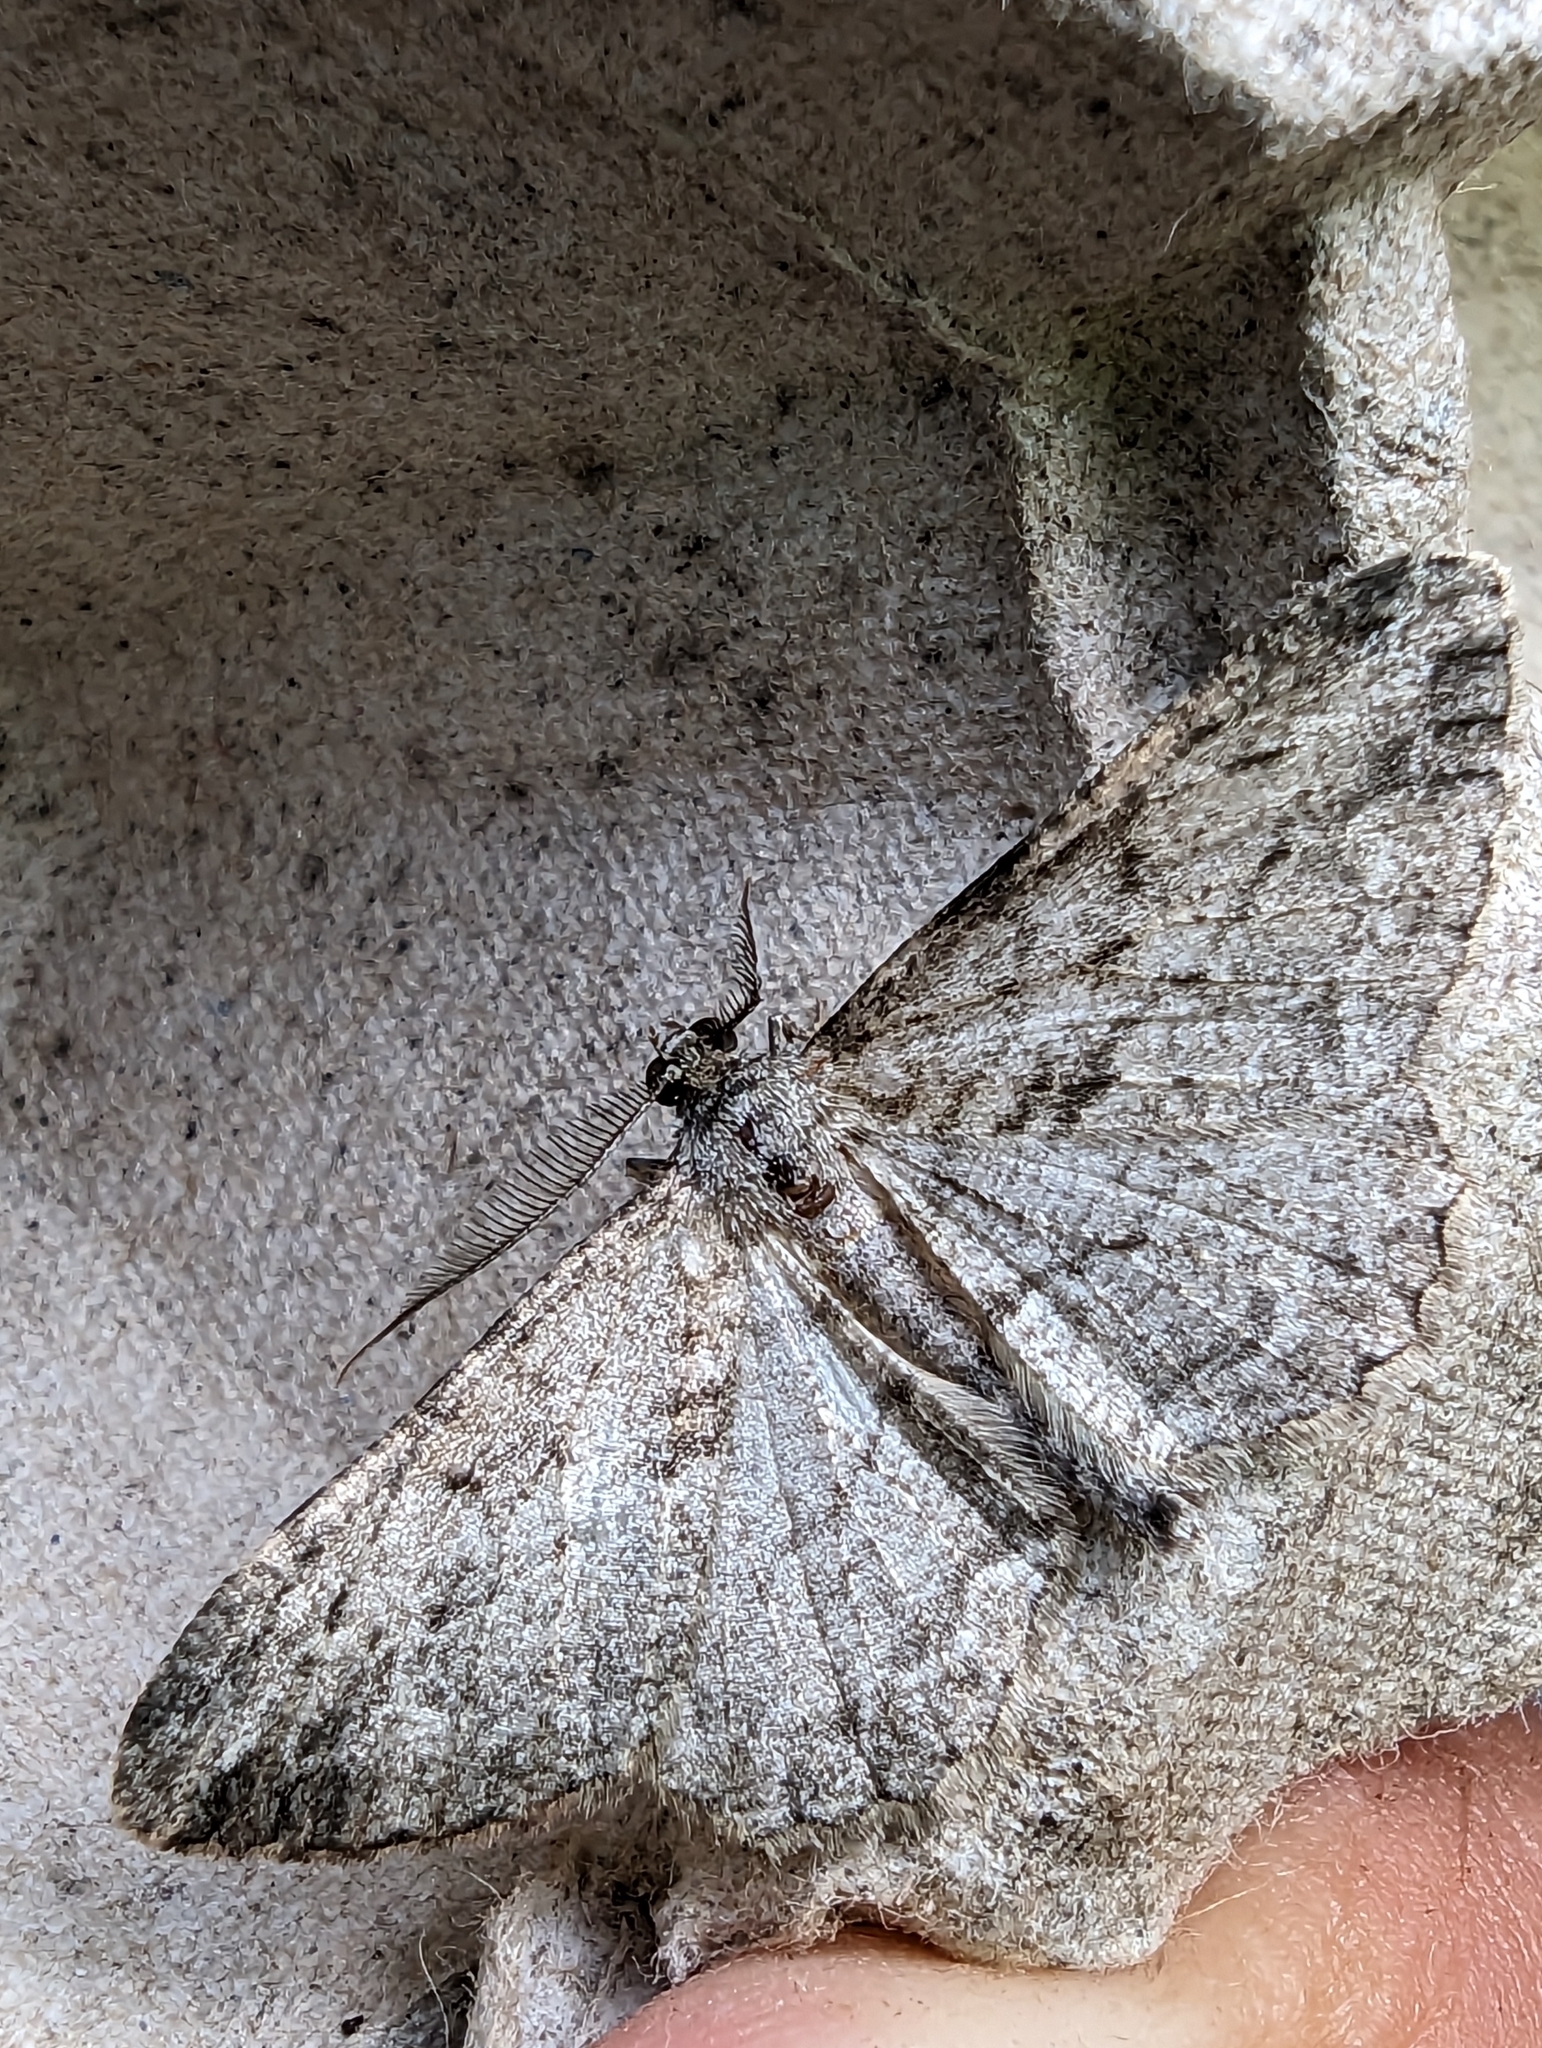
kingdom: Animalia
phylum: Arthropoda
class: Insecta
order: Lepidoptera
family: Geometridae
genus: Peribatodes
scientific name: Peribatodes rhomboidaria
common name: Willow beauty
